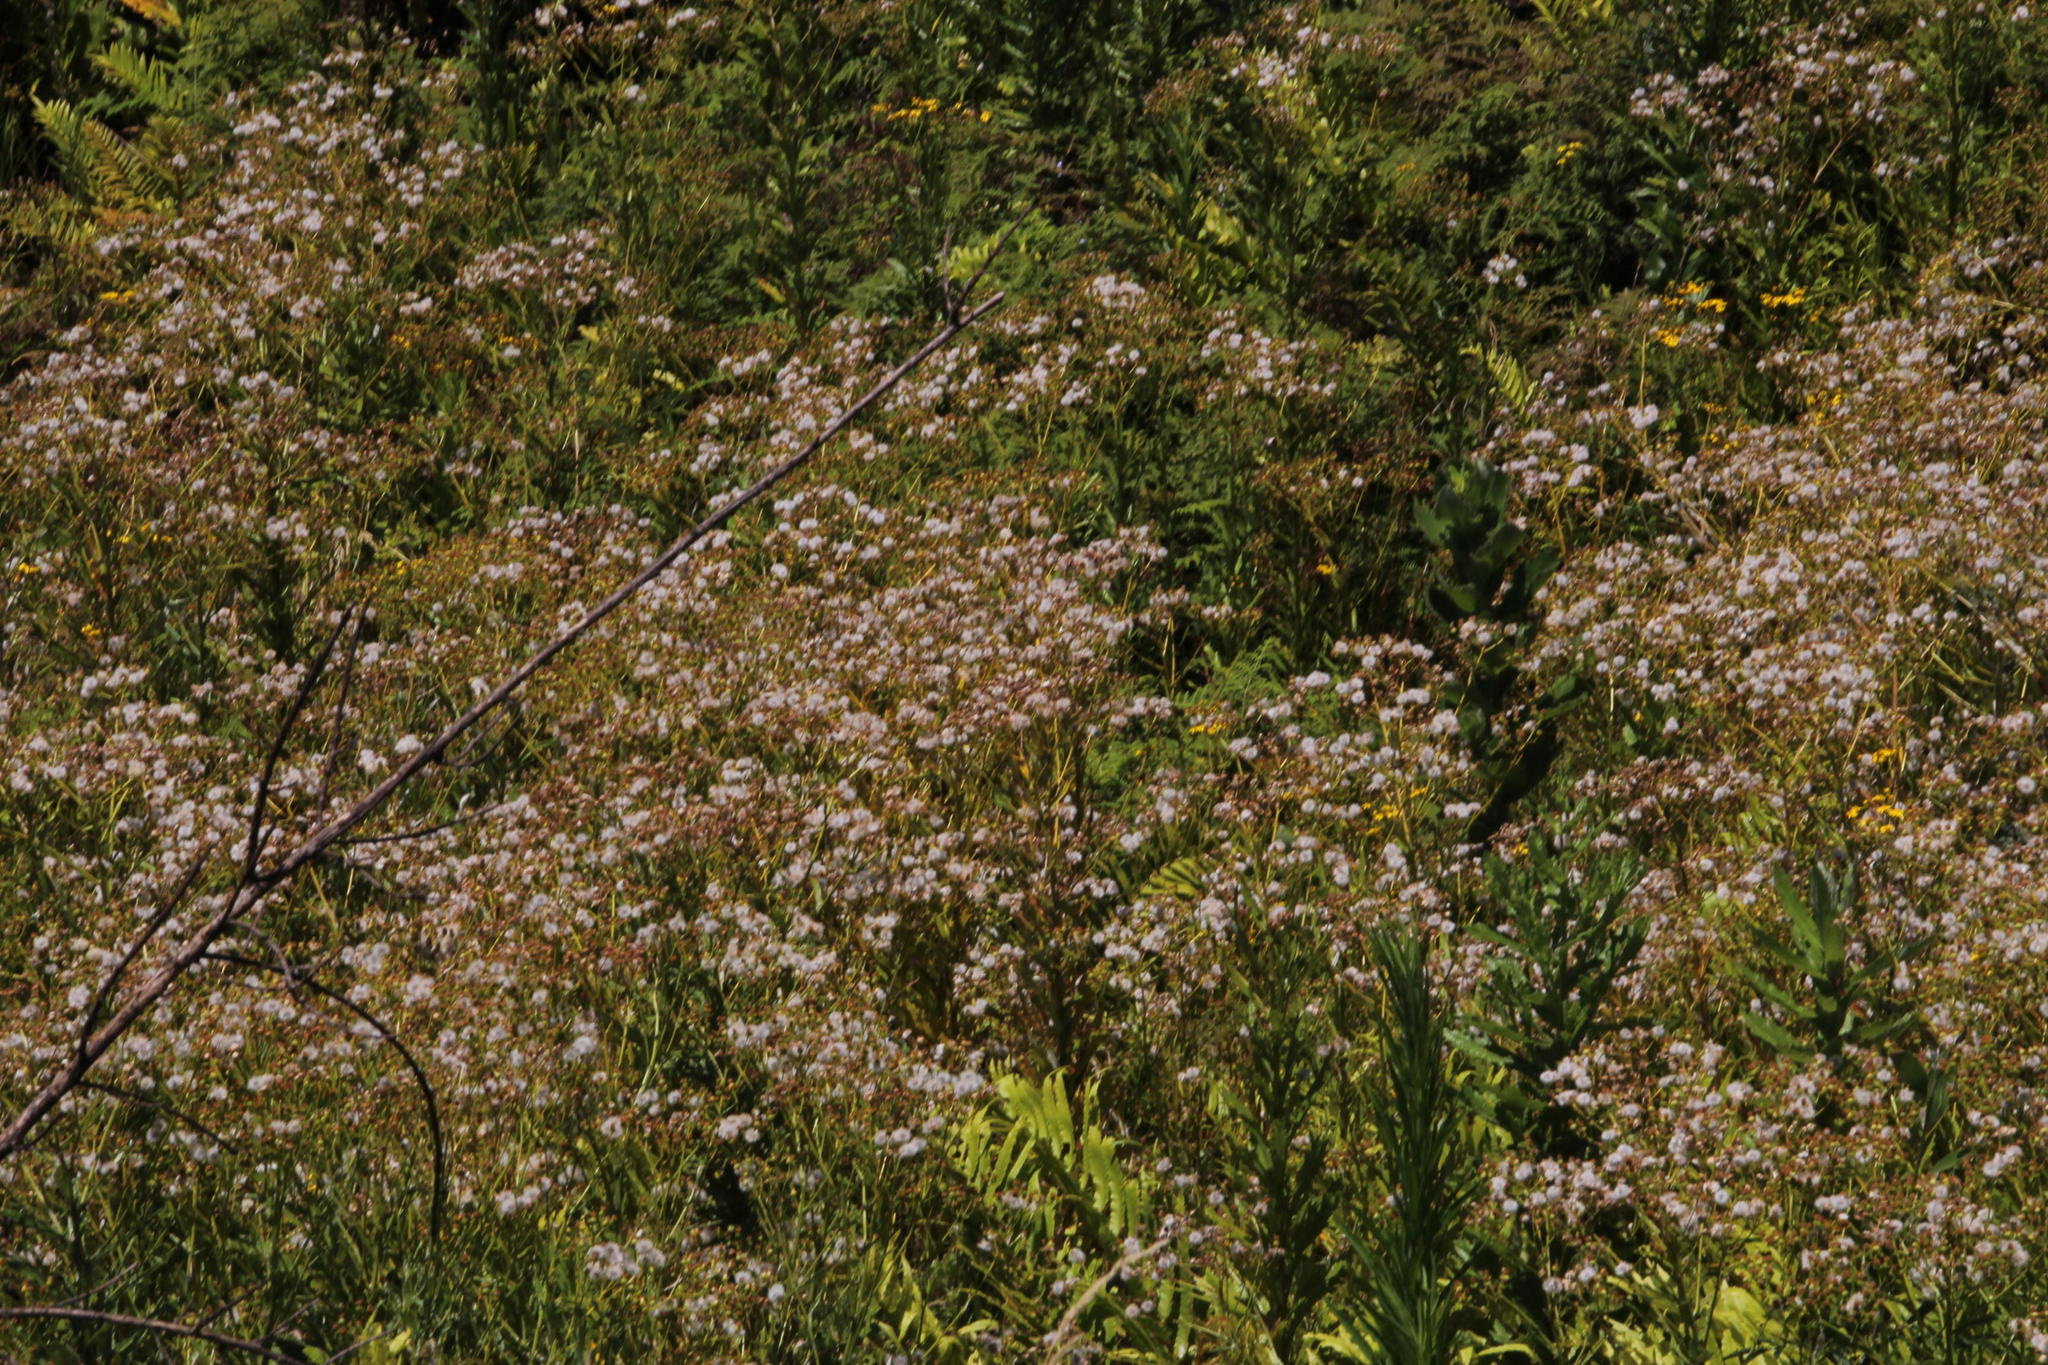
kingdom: Plantae
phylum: Tracheophyta
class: Magnoliopsida
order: Asterales
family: Asteraceae
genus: Senecio
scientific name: Senecio pterophorus
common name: Shoddy ragwort
